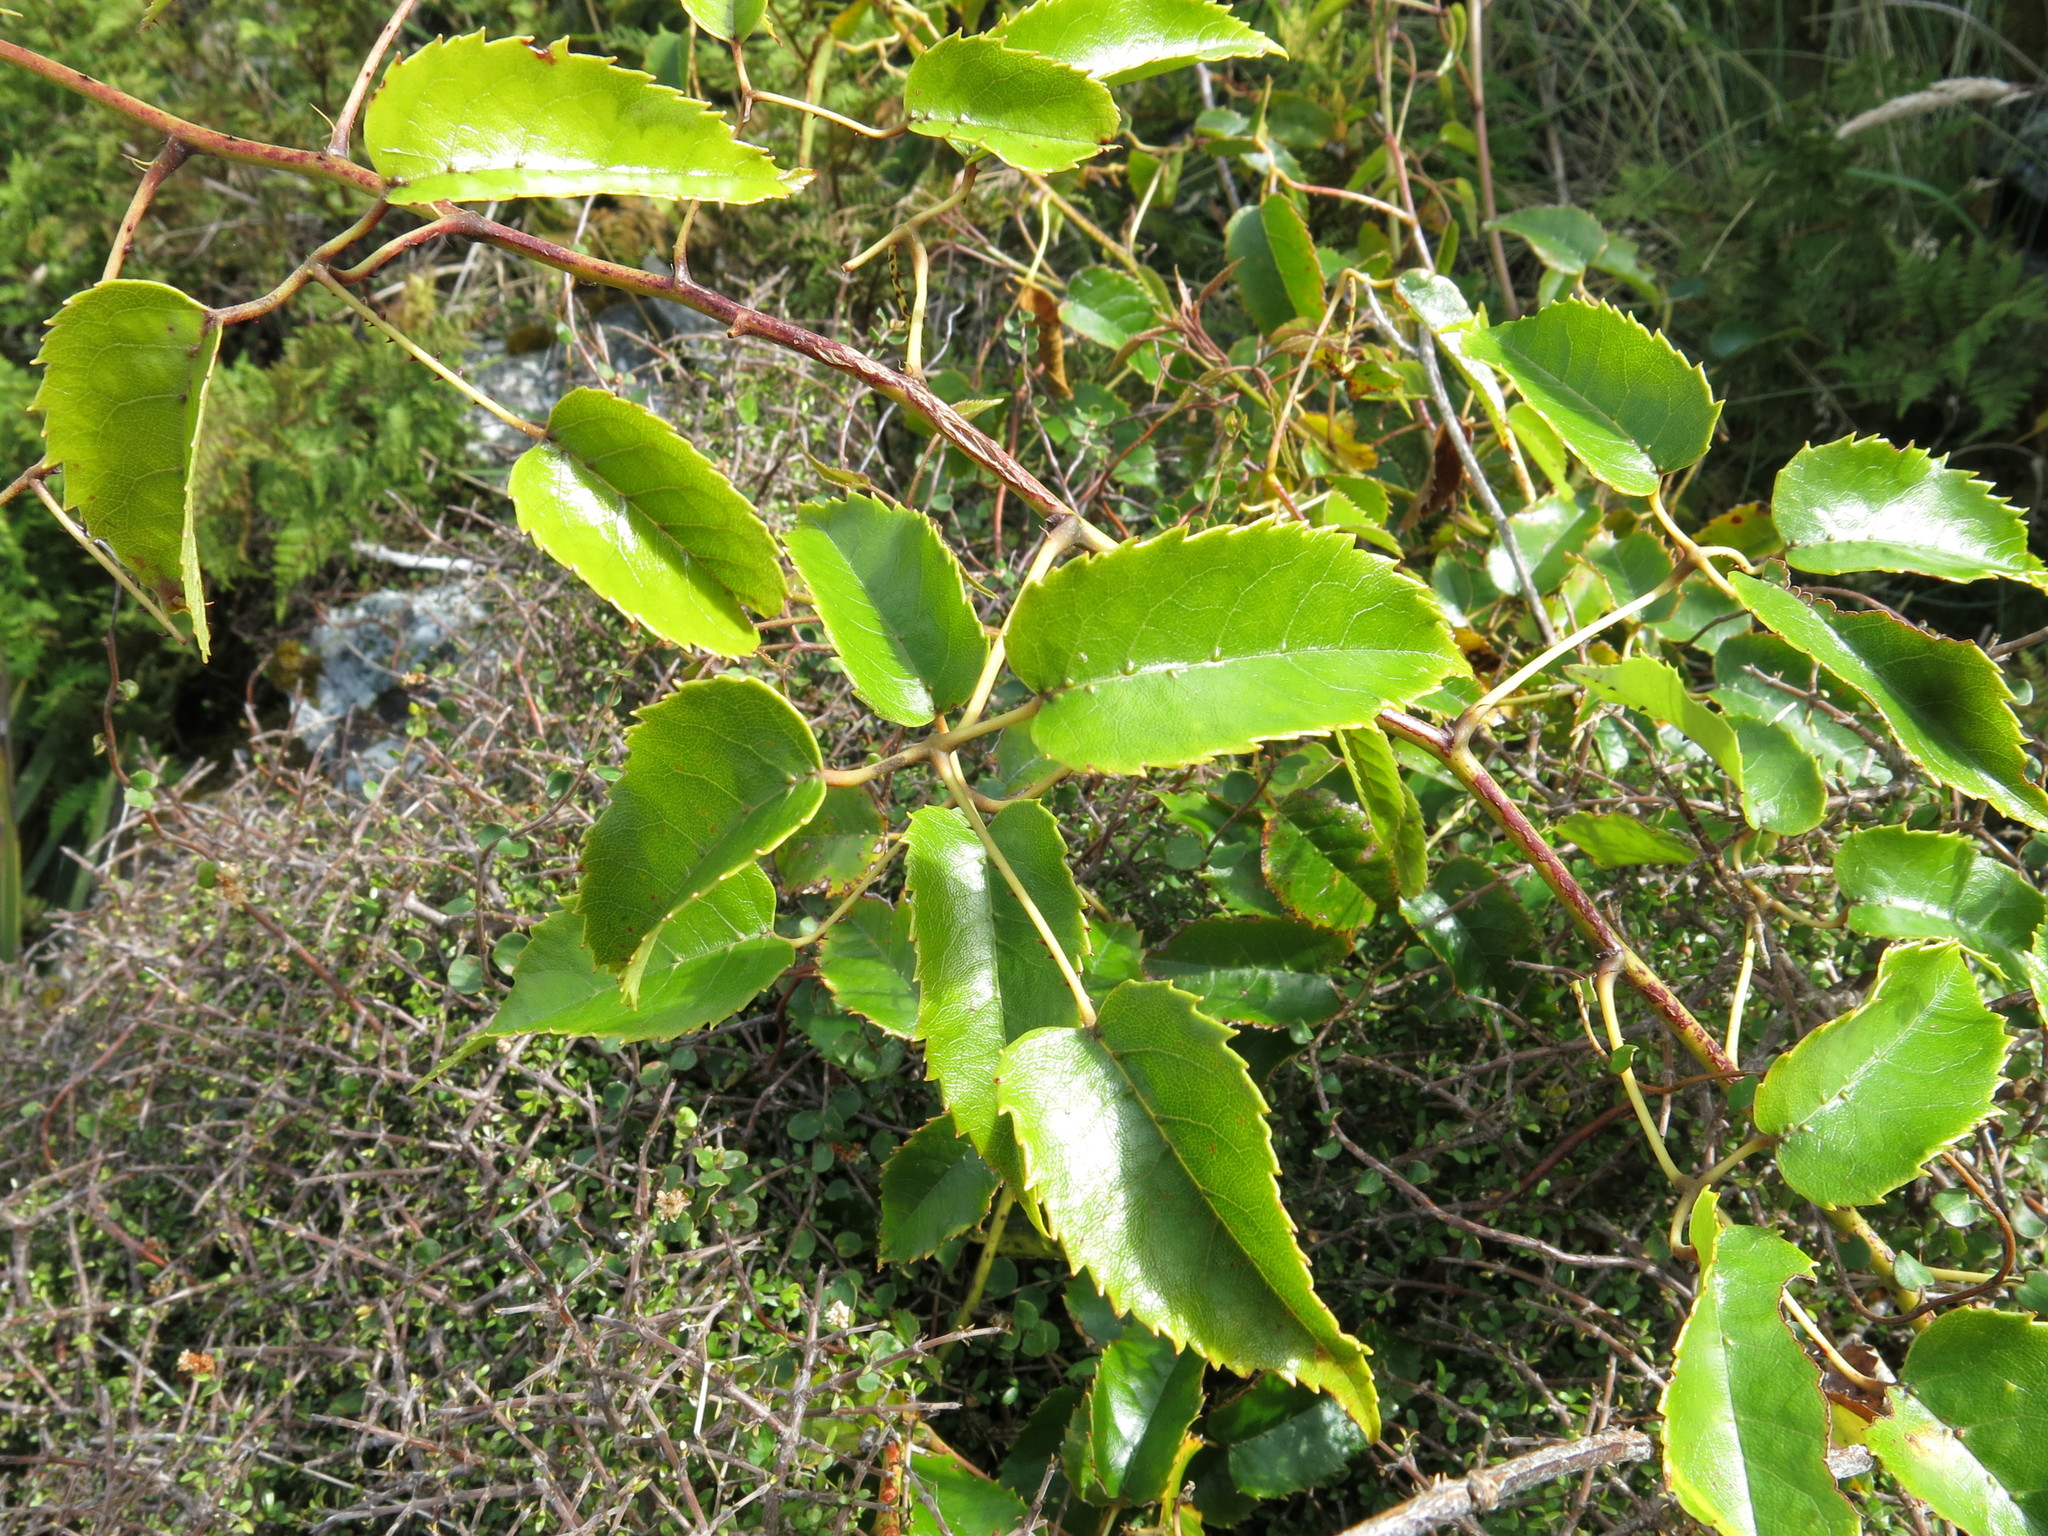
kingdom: Plantae
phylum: Tracheophyta
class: Magnoliopsida
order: Rosales
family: Rosaceae
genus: Rubus
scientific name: Rubus cissoides
